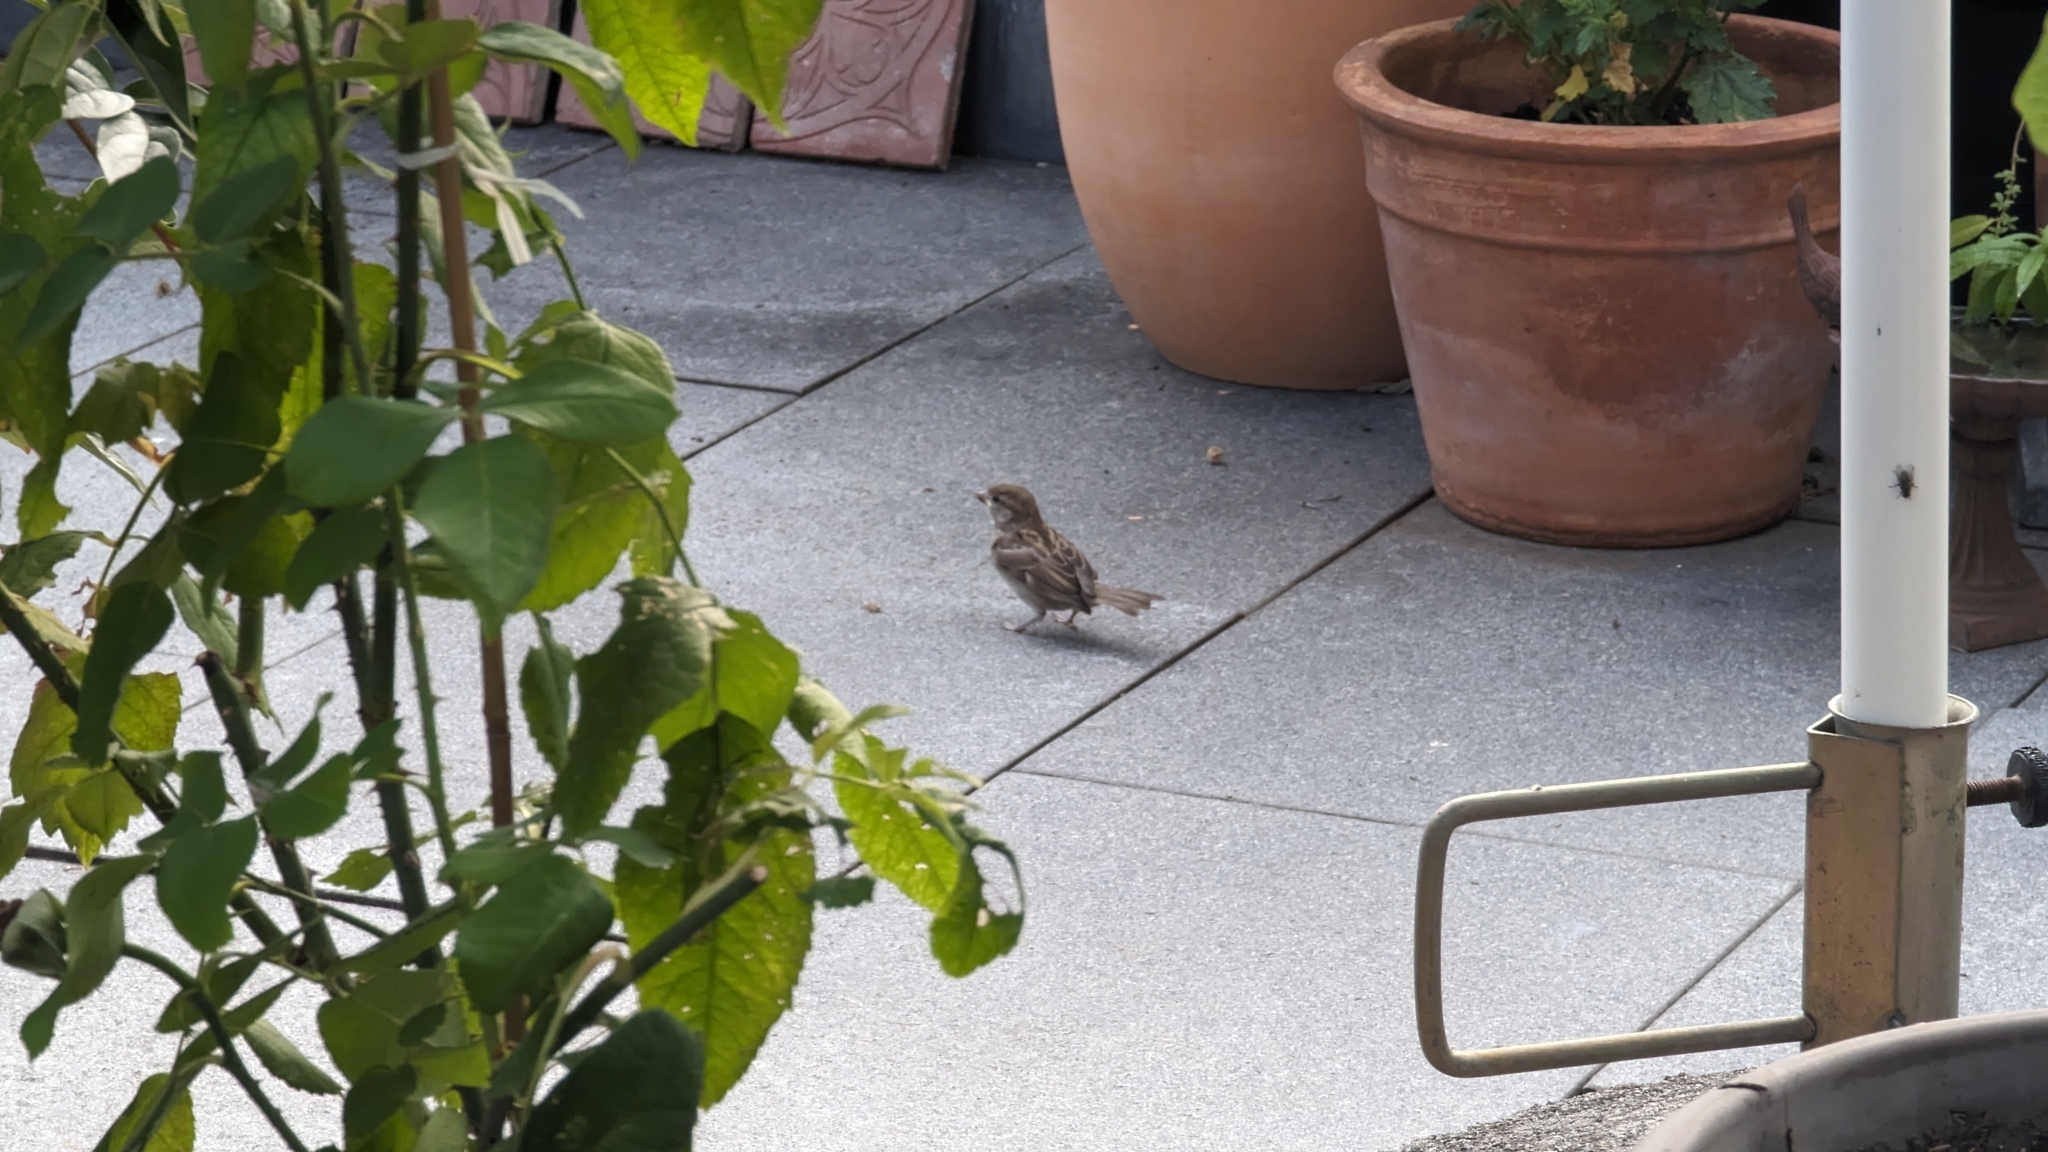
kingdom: Animalia
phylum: Chordata
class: Aves
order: Passeriformes
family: Passeridae
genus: Passer
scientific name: Passer domesticus
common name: House sparrow
